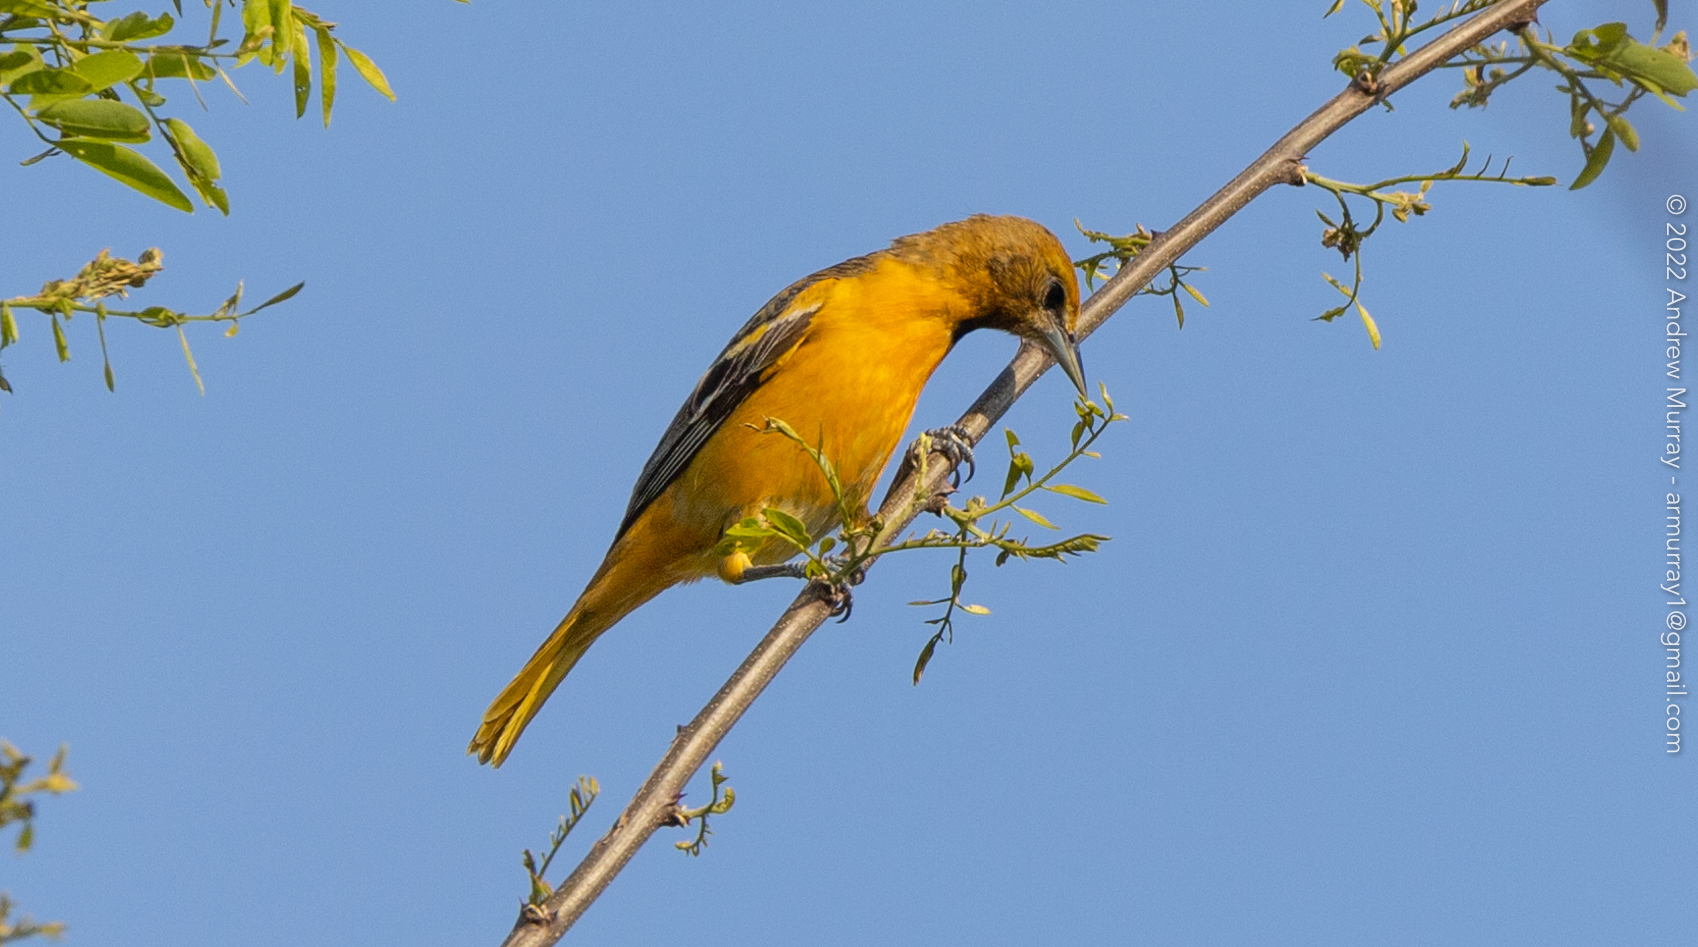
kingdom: Animalia
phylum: Chordata
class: Aves
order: Passeriformes
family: Icteridae
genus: Icterus
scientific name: Icterus galbula
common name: Baltimore oriole
